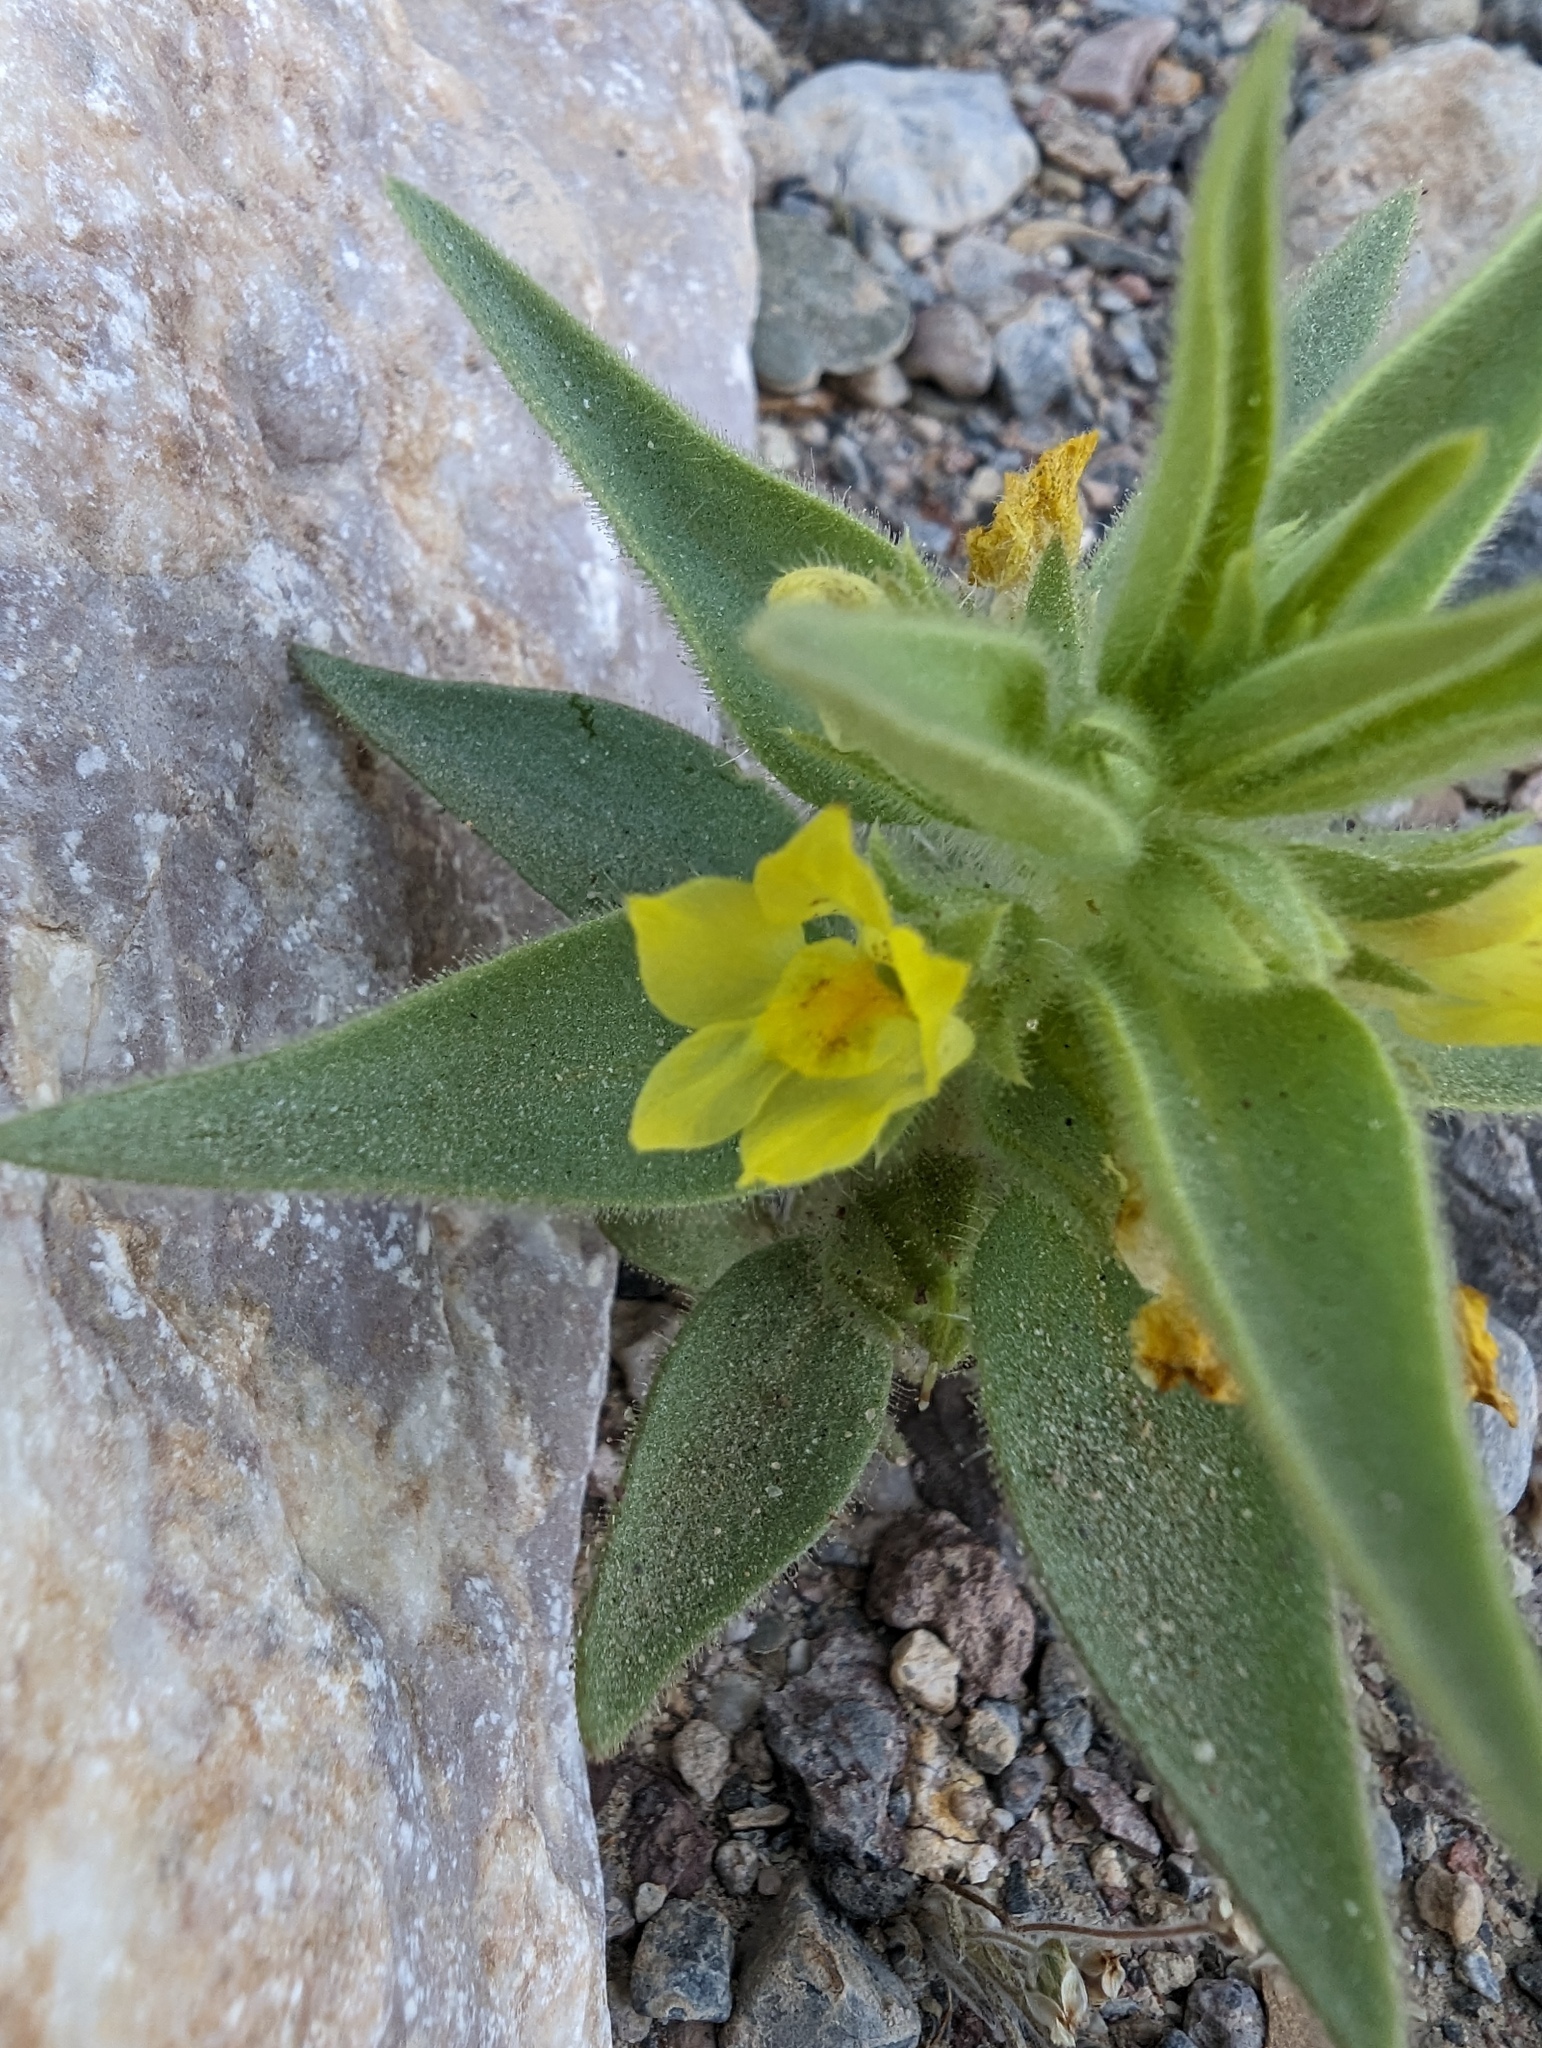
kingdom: Plantae
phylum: Tracheophyta
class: Magnoliopsida
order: Lamiales
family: Plantaginaceae
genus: Mohavea
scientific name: Mohavea breviflora
